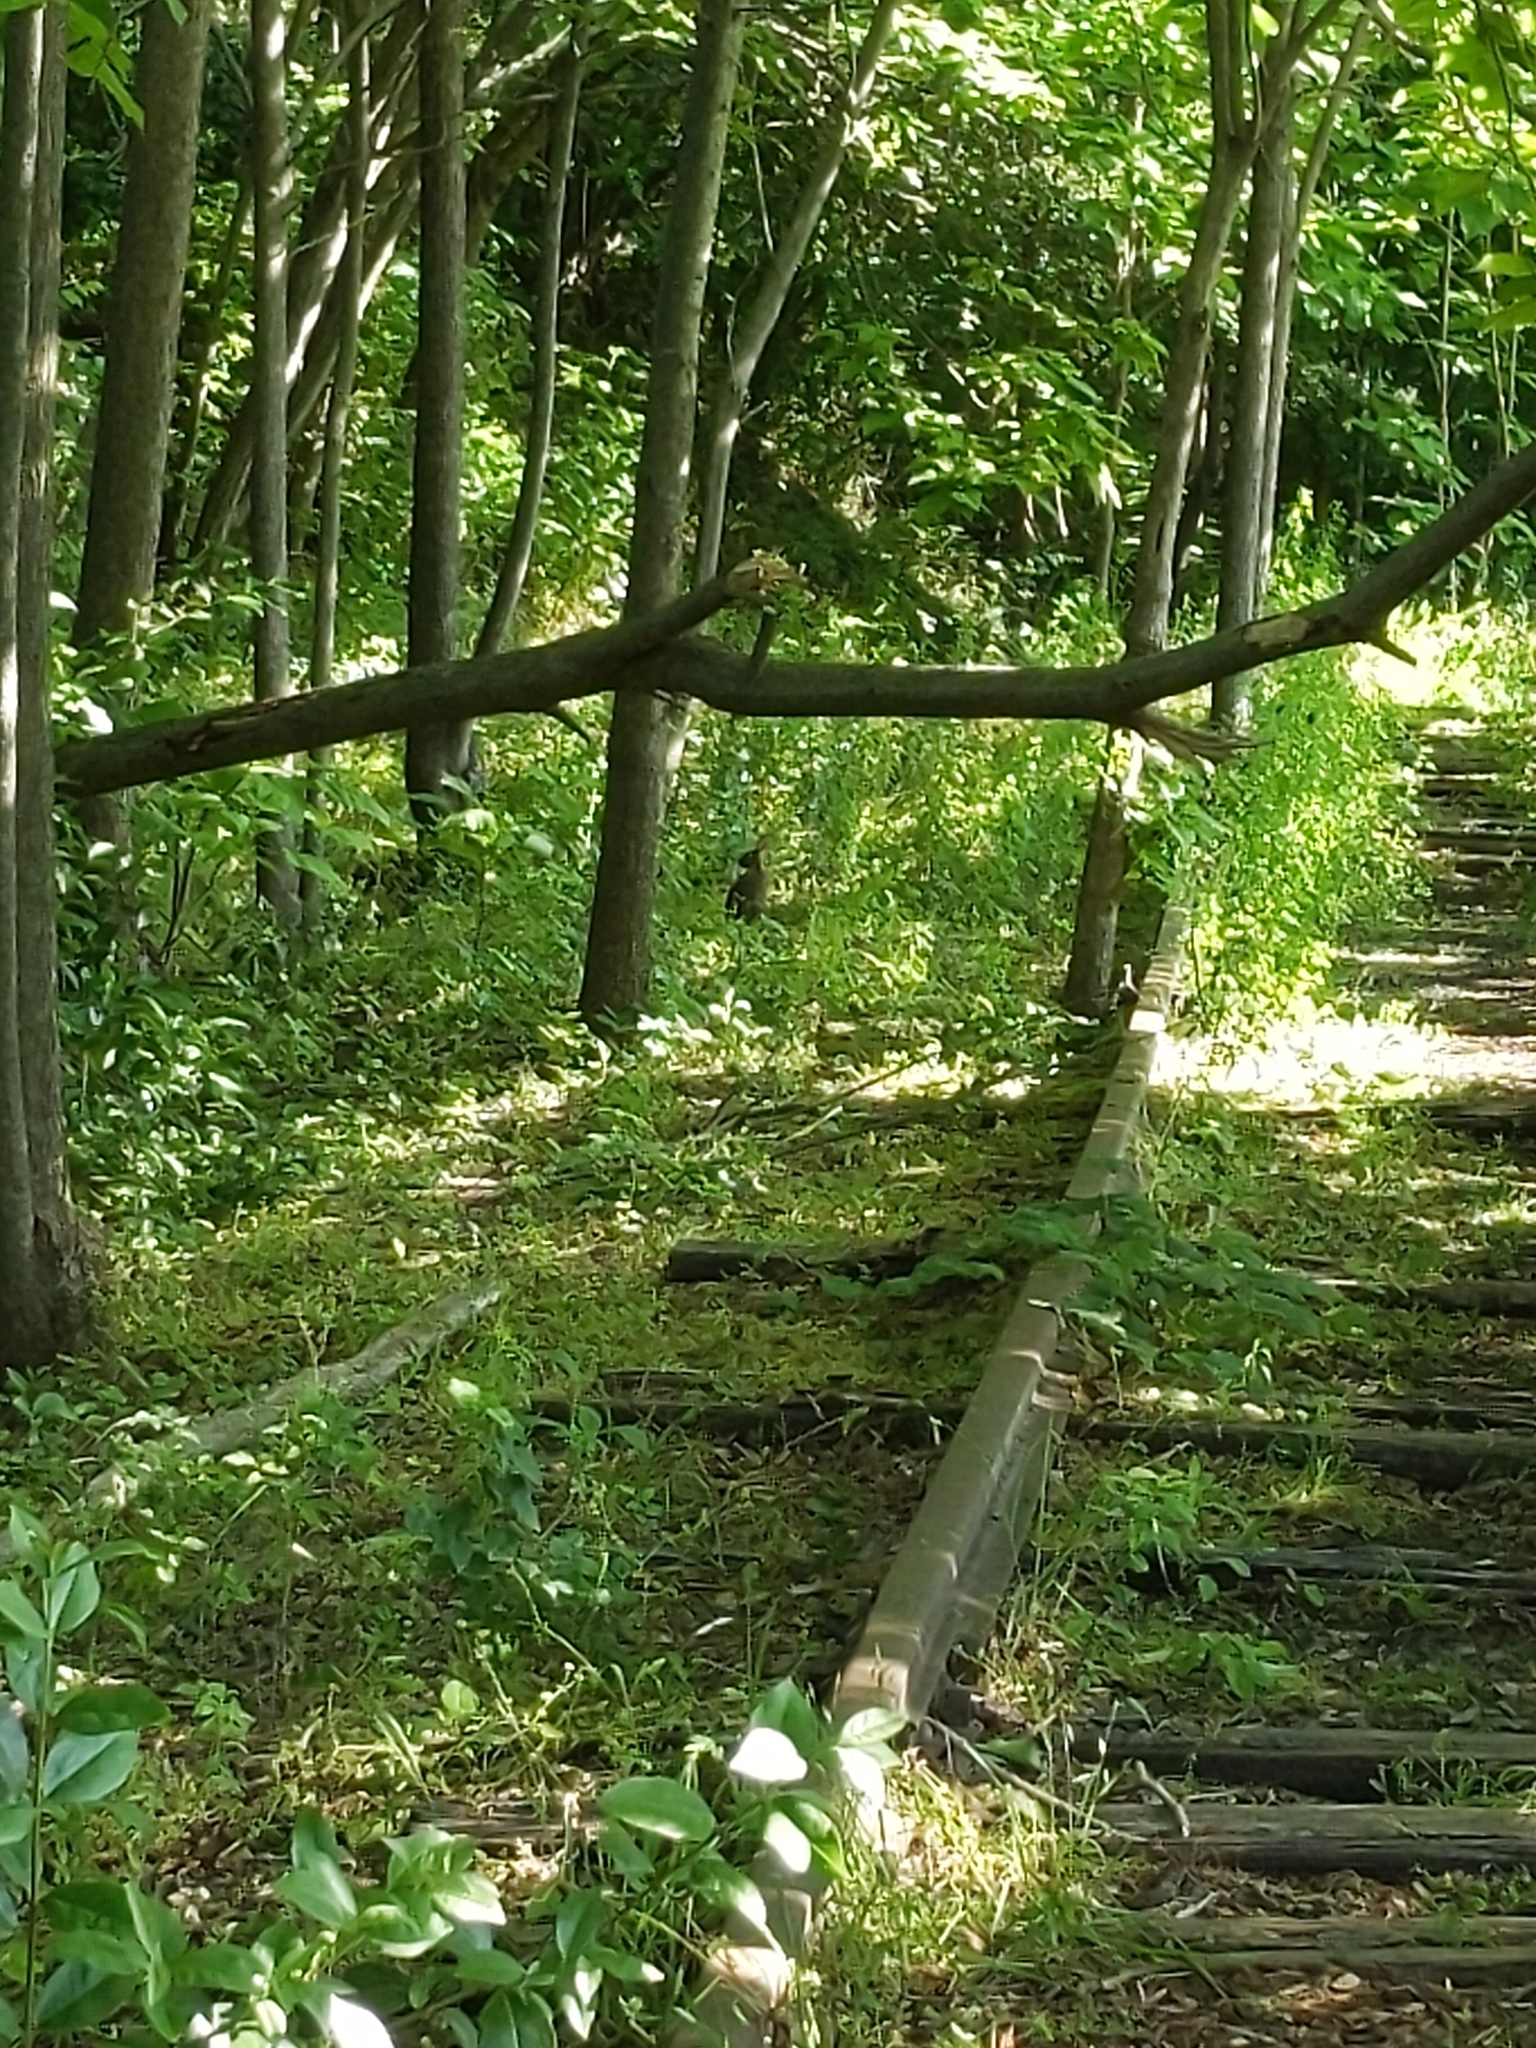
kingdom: Animalia
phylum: Chordata
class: Mammalia
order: Lagomorpha
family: Leporidae
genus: Sylvilagus
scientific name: Sylvilagus floridanus
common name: Eastern cottontail
